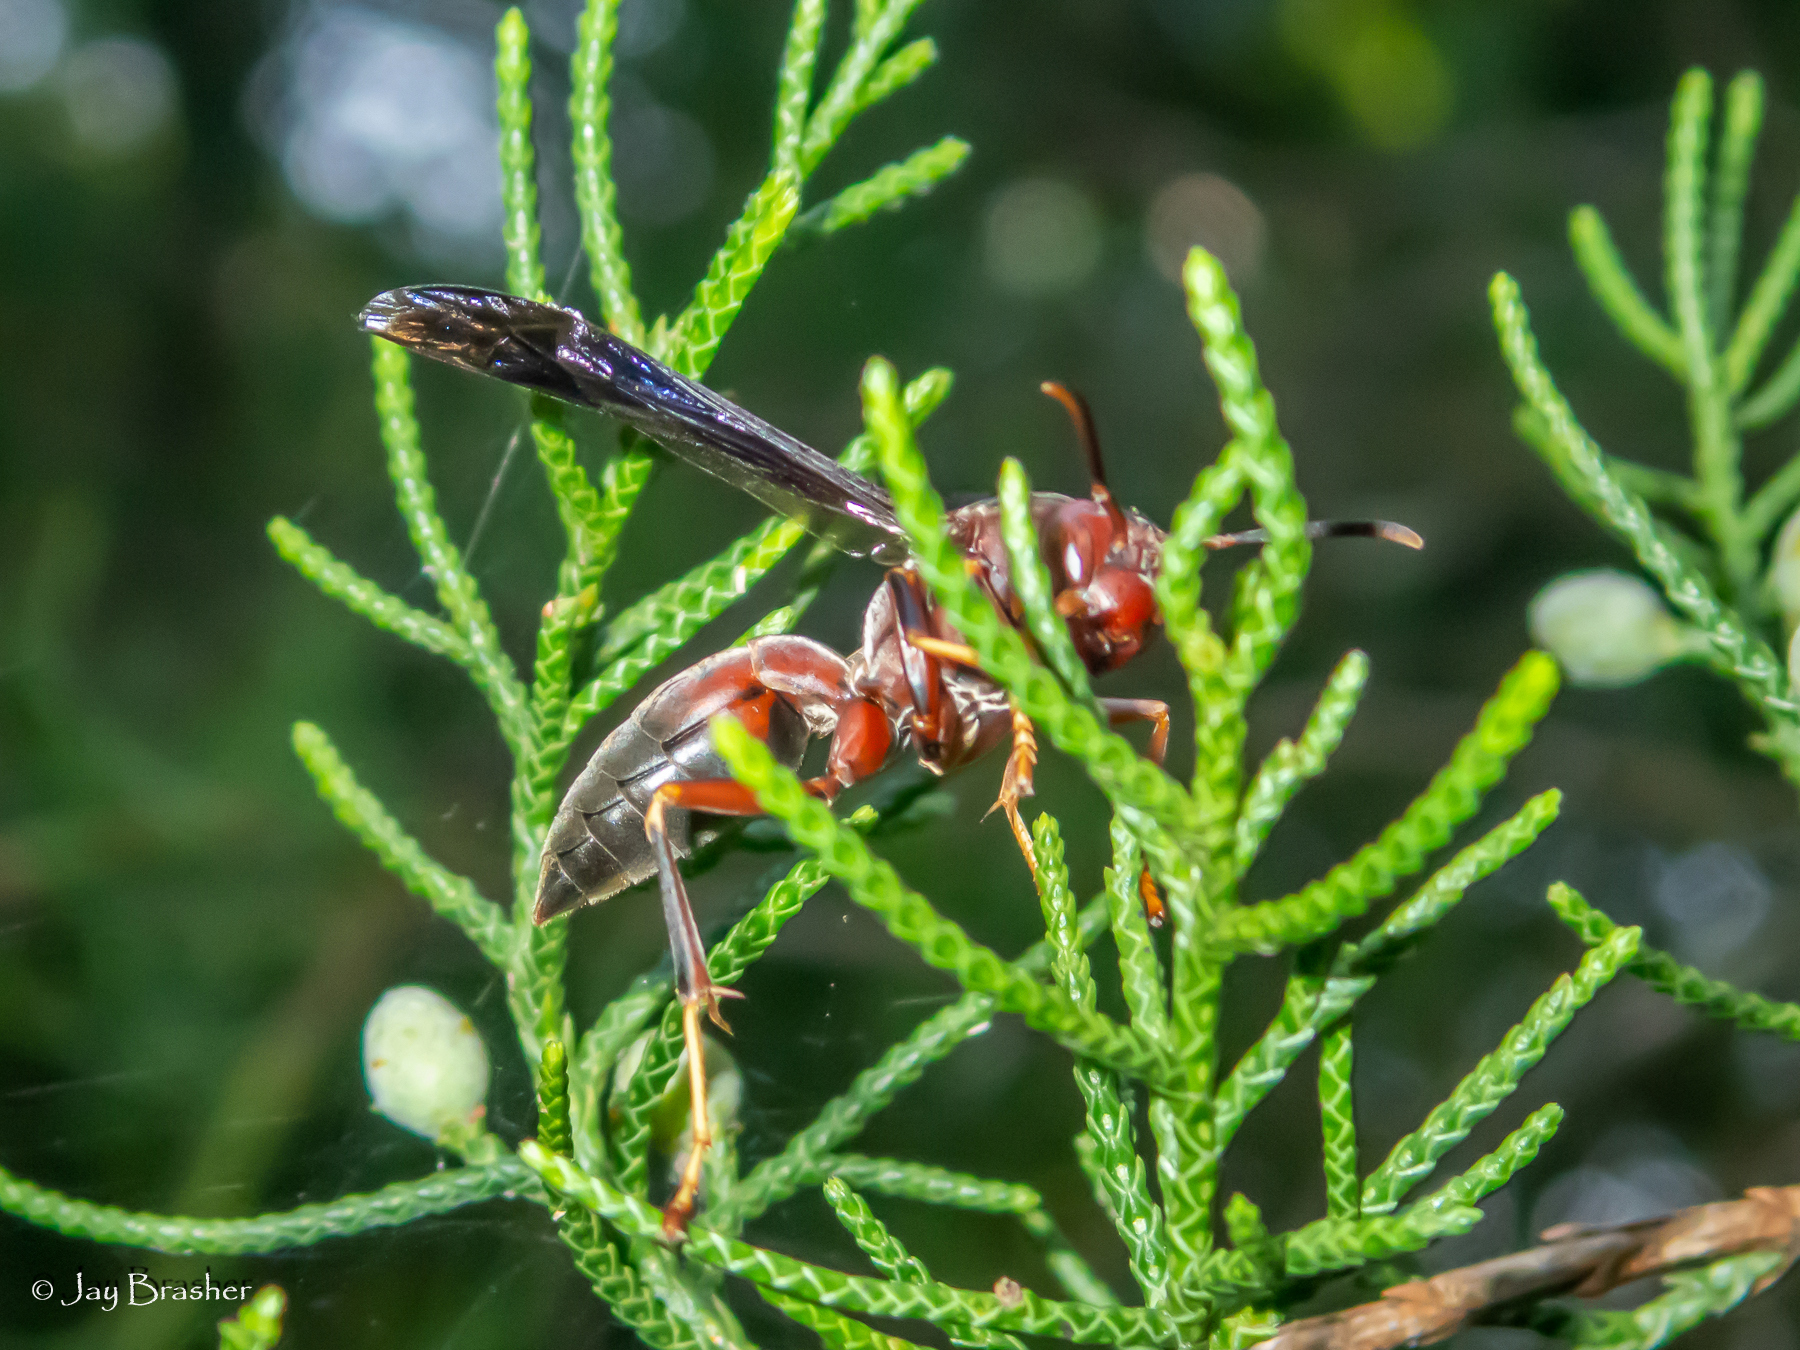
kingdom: Animalia
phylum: Arthropoda
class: Insecta
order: Hymenoptera
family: Eumenidae
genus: Polistes
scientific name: Polistes metricus
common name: Metric paper wasp
